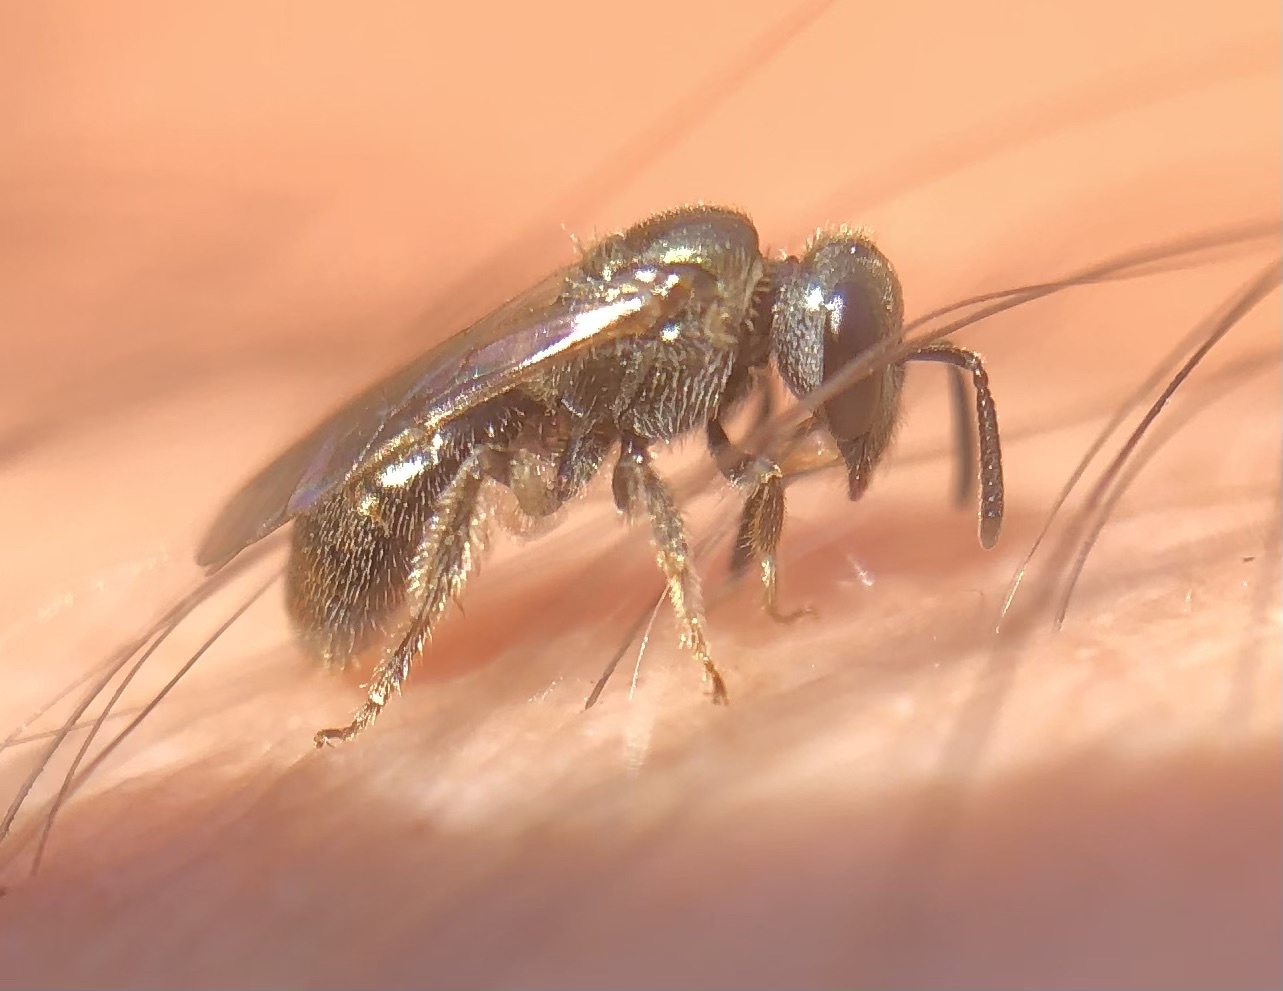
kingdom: Animalia
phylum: Arthropoda
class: Insecta
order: Hymenoptera
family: Halictidae
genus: Lasioglossum
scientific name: Lasioglossum imitatum
